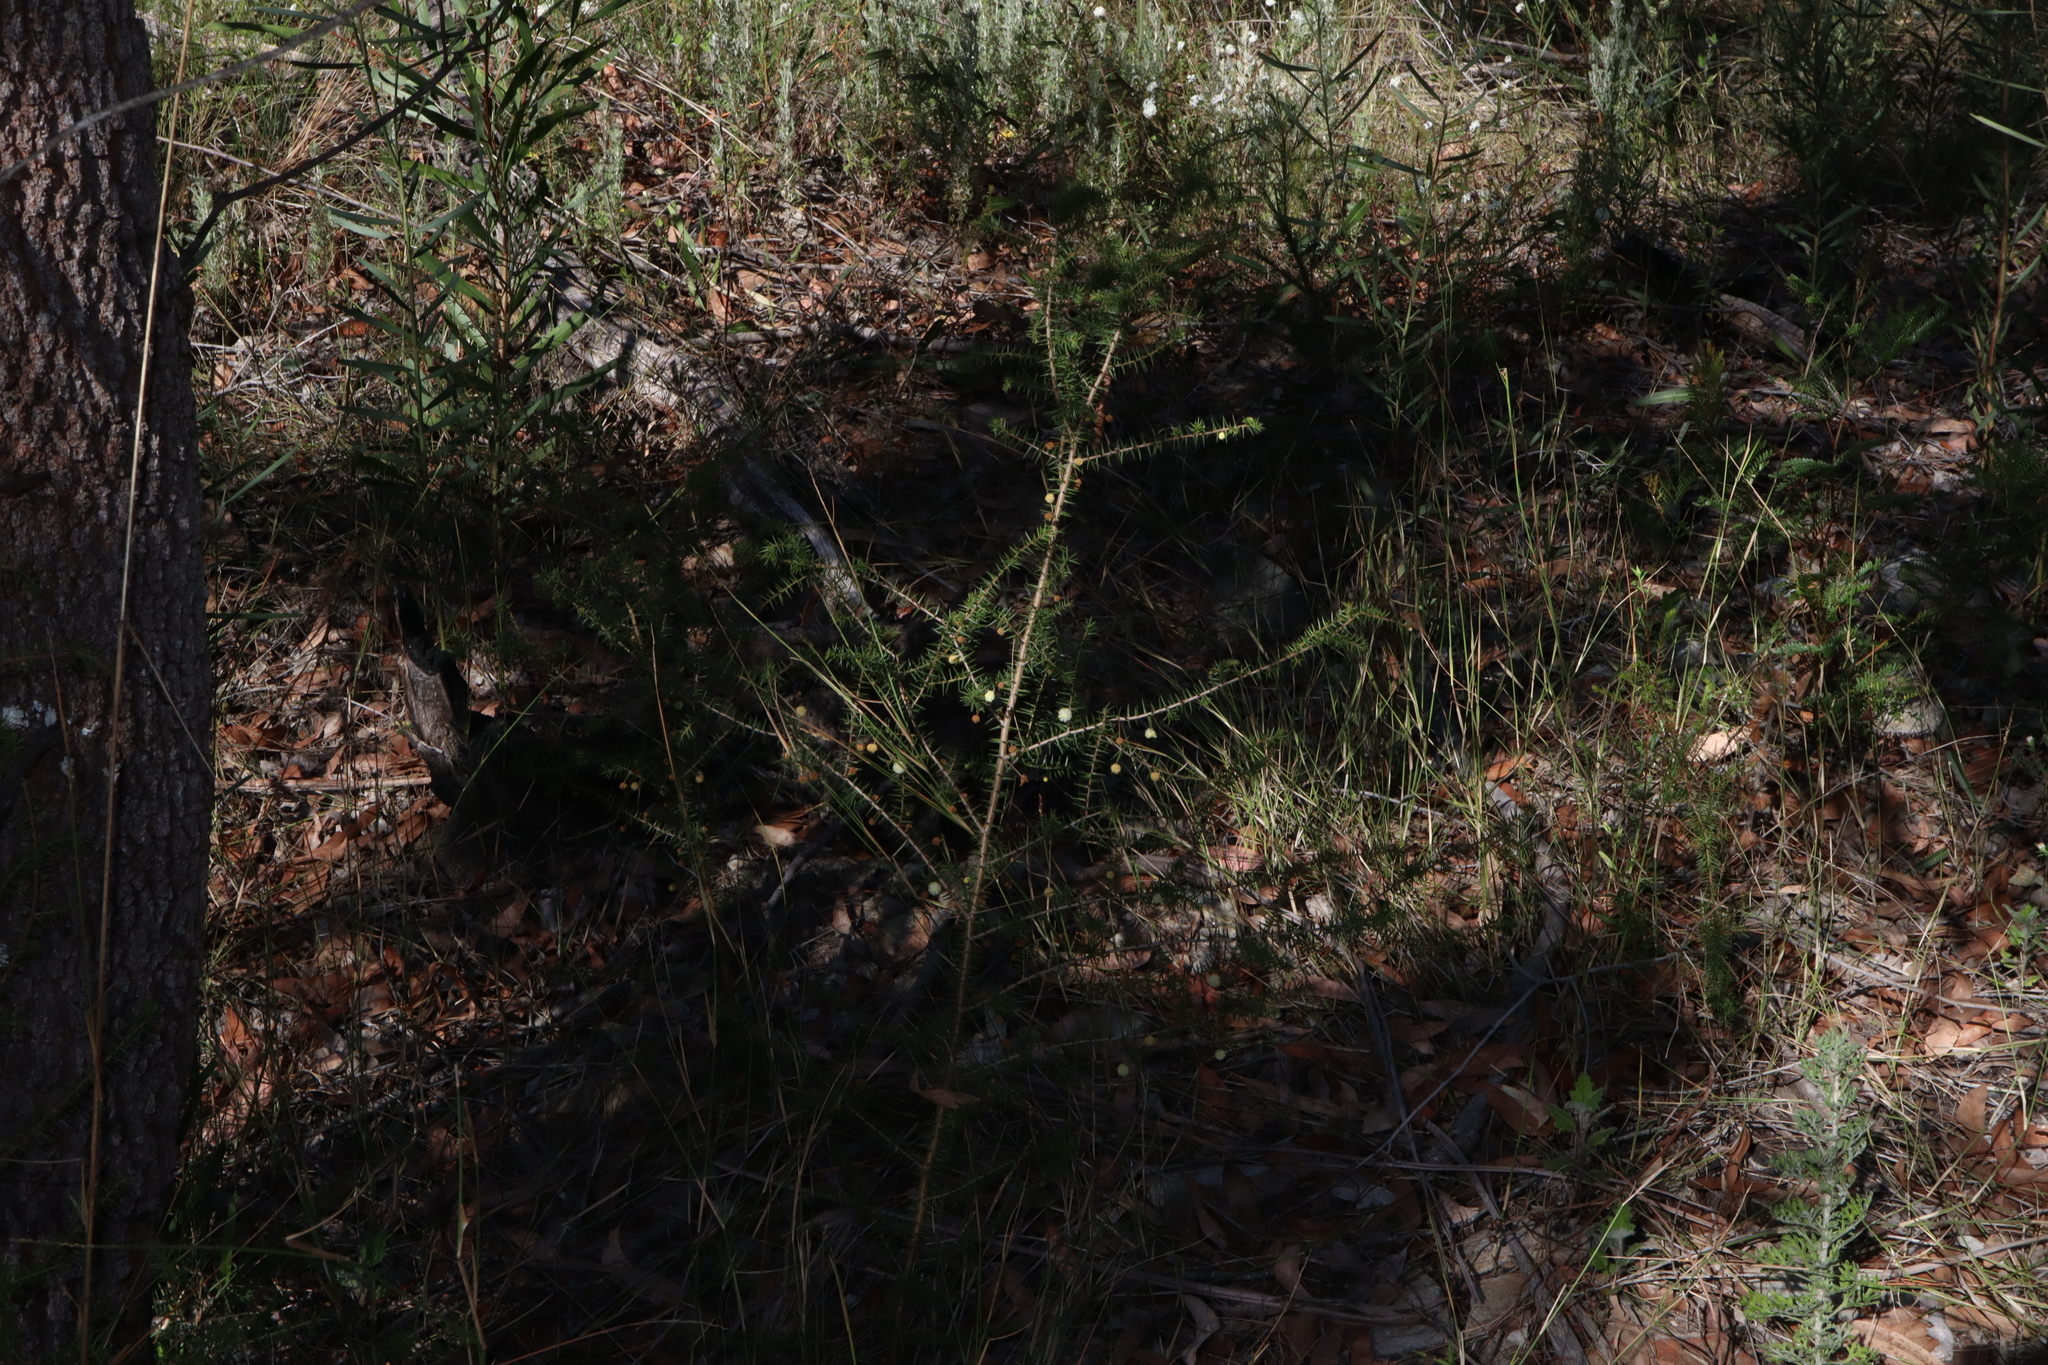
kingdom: Plantae
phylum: Tracheophyta
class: Magnoliopsida
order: Fabales
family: Fabaceae
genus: Acacia
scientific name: Acacia ulicifolia
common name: Juniper wattle
